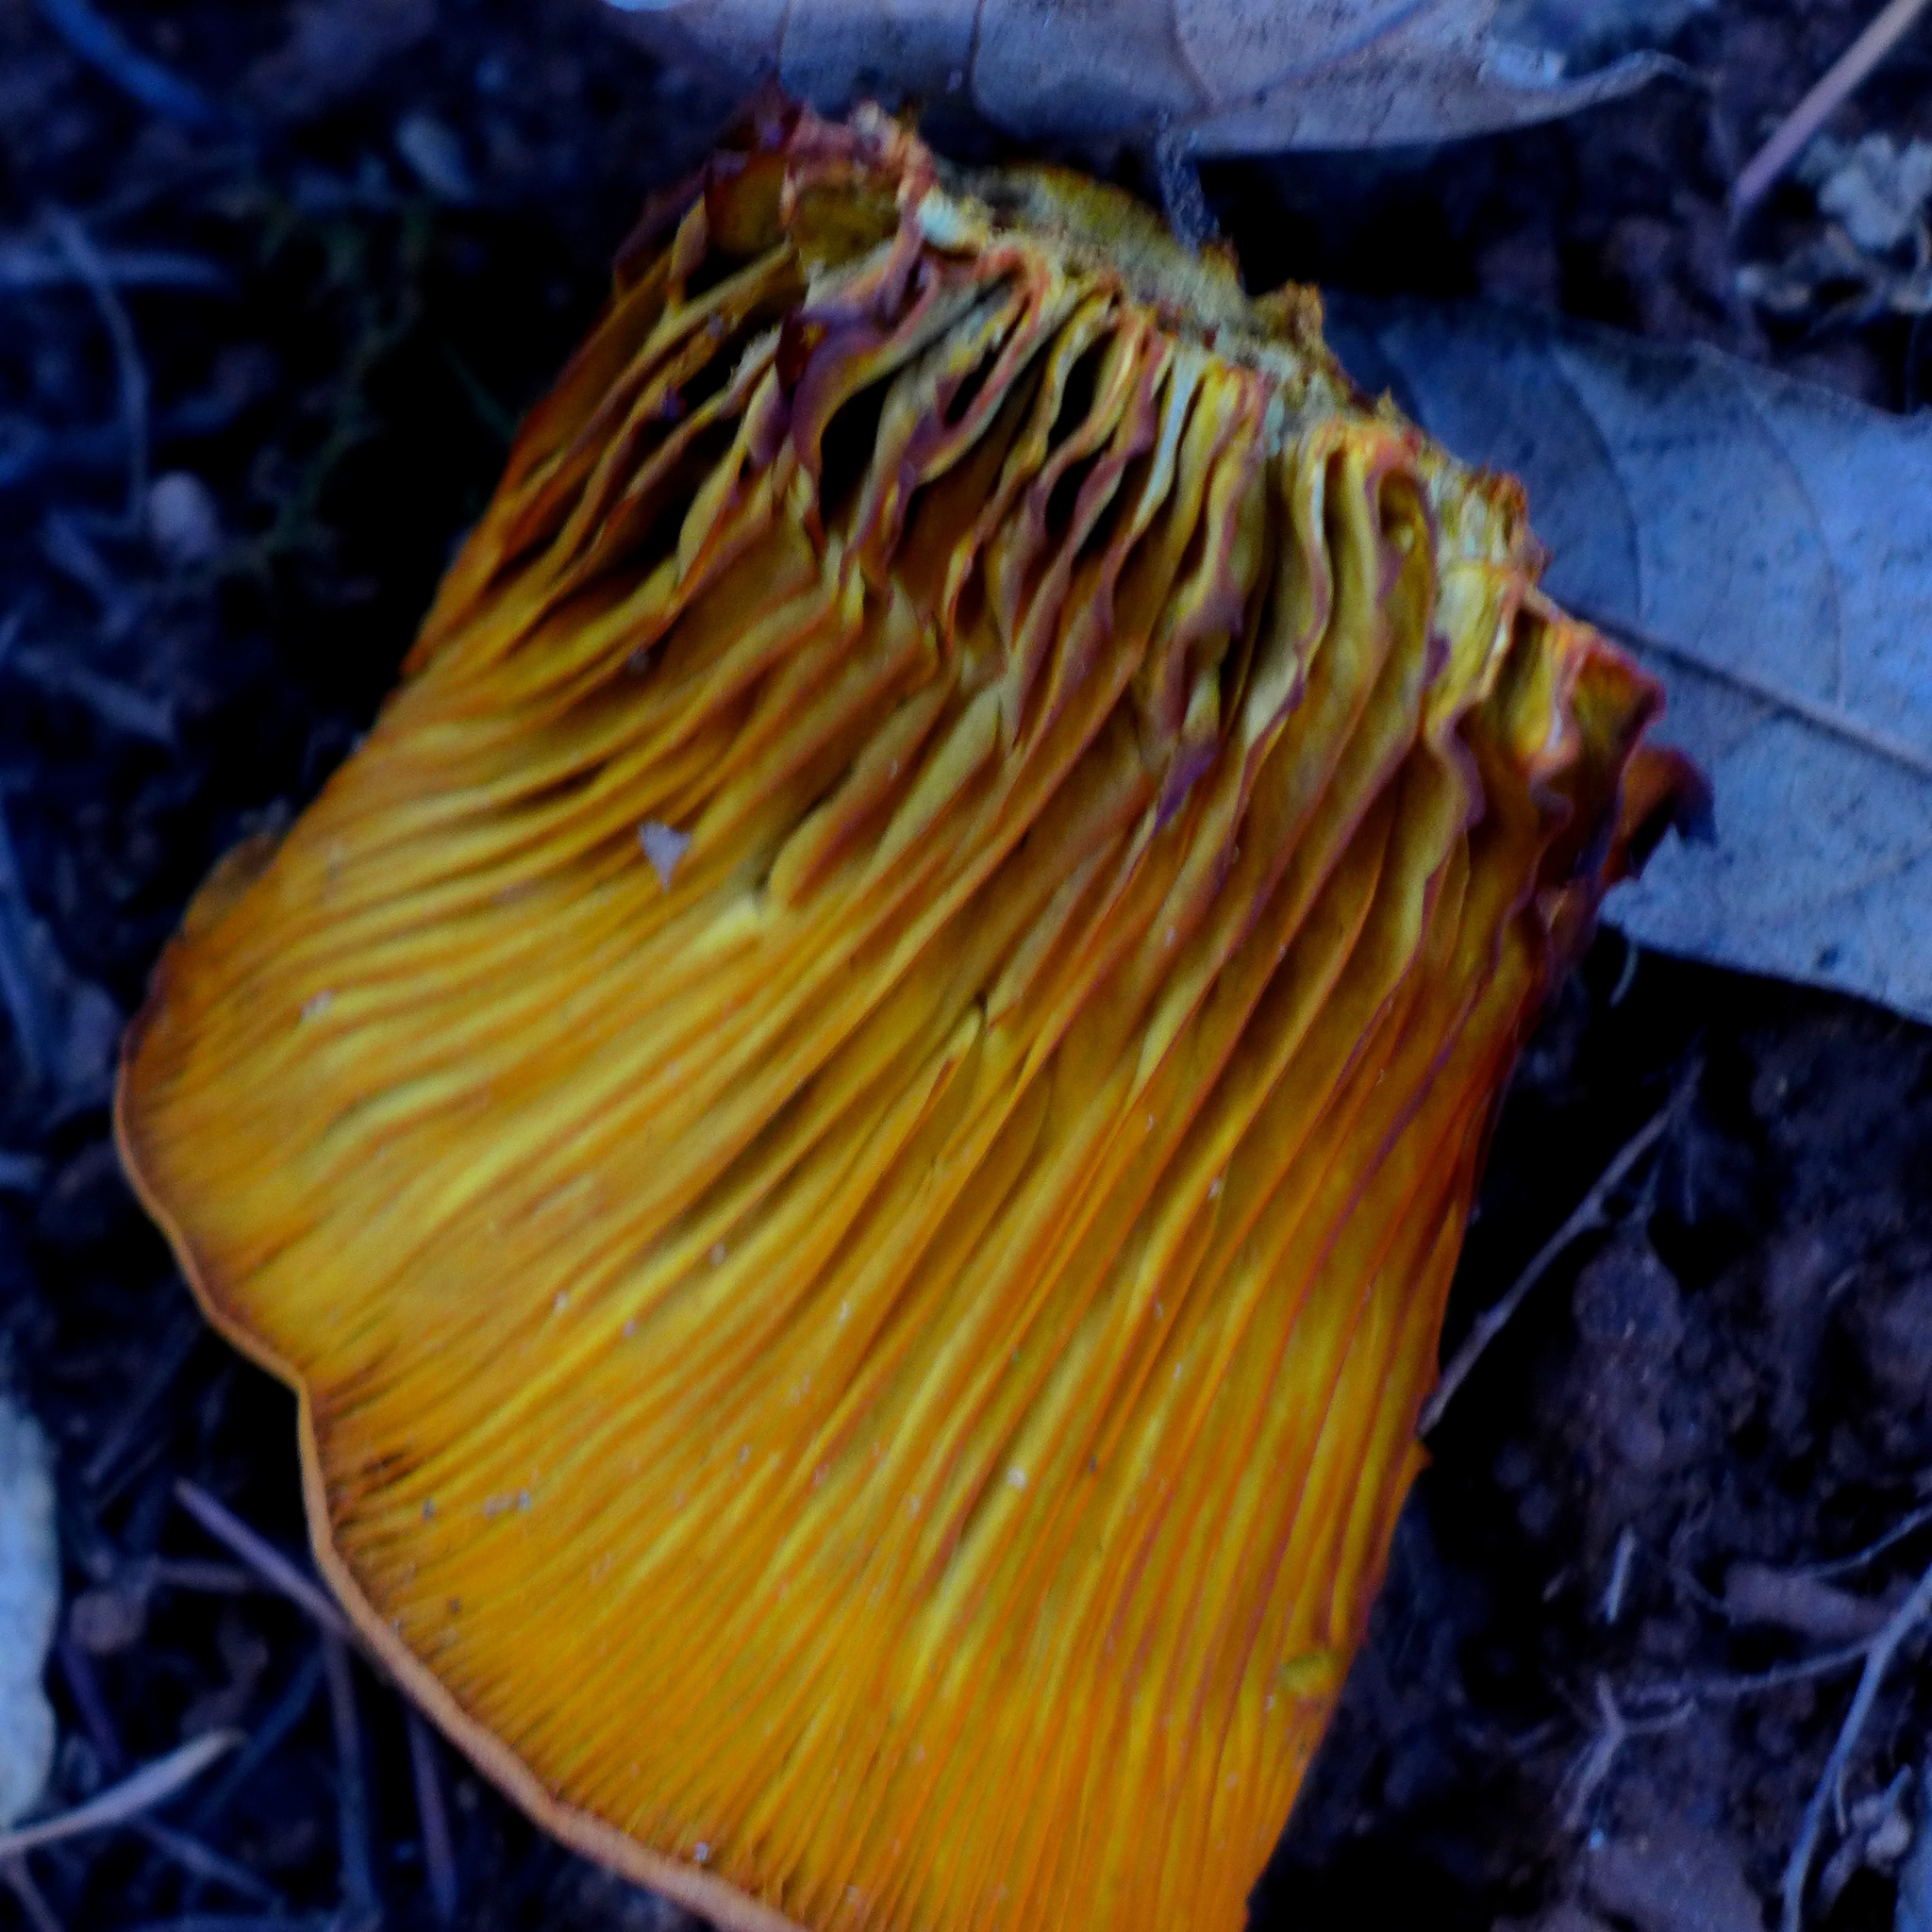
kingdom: Fungi
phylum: Basidiomycota
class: Agaricomycetes
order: Agaricales
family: Omphalotaceae
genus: Omphalotus
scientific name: Omphalotus olivascens
